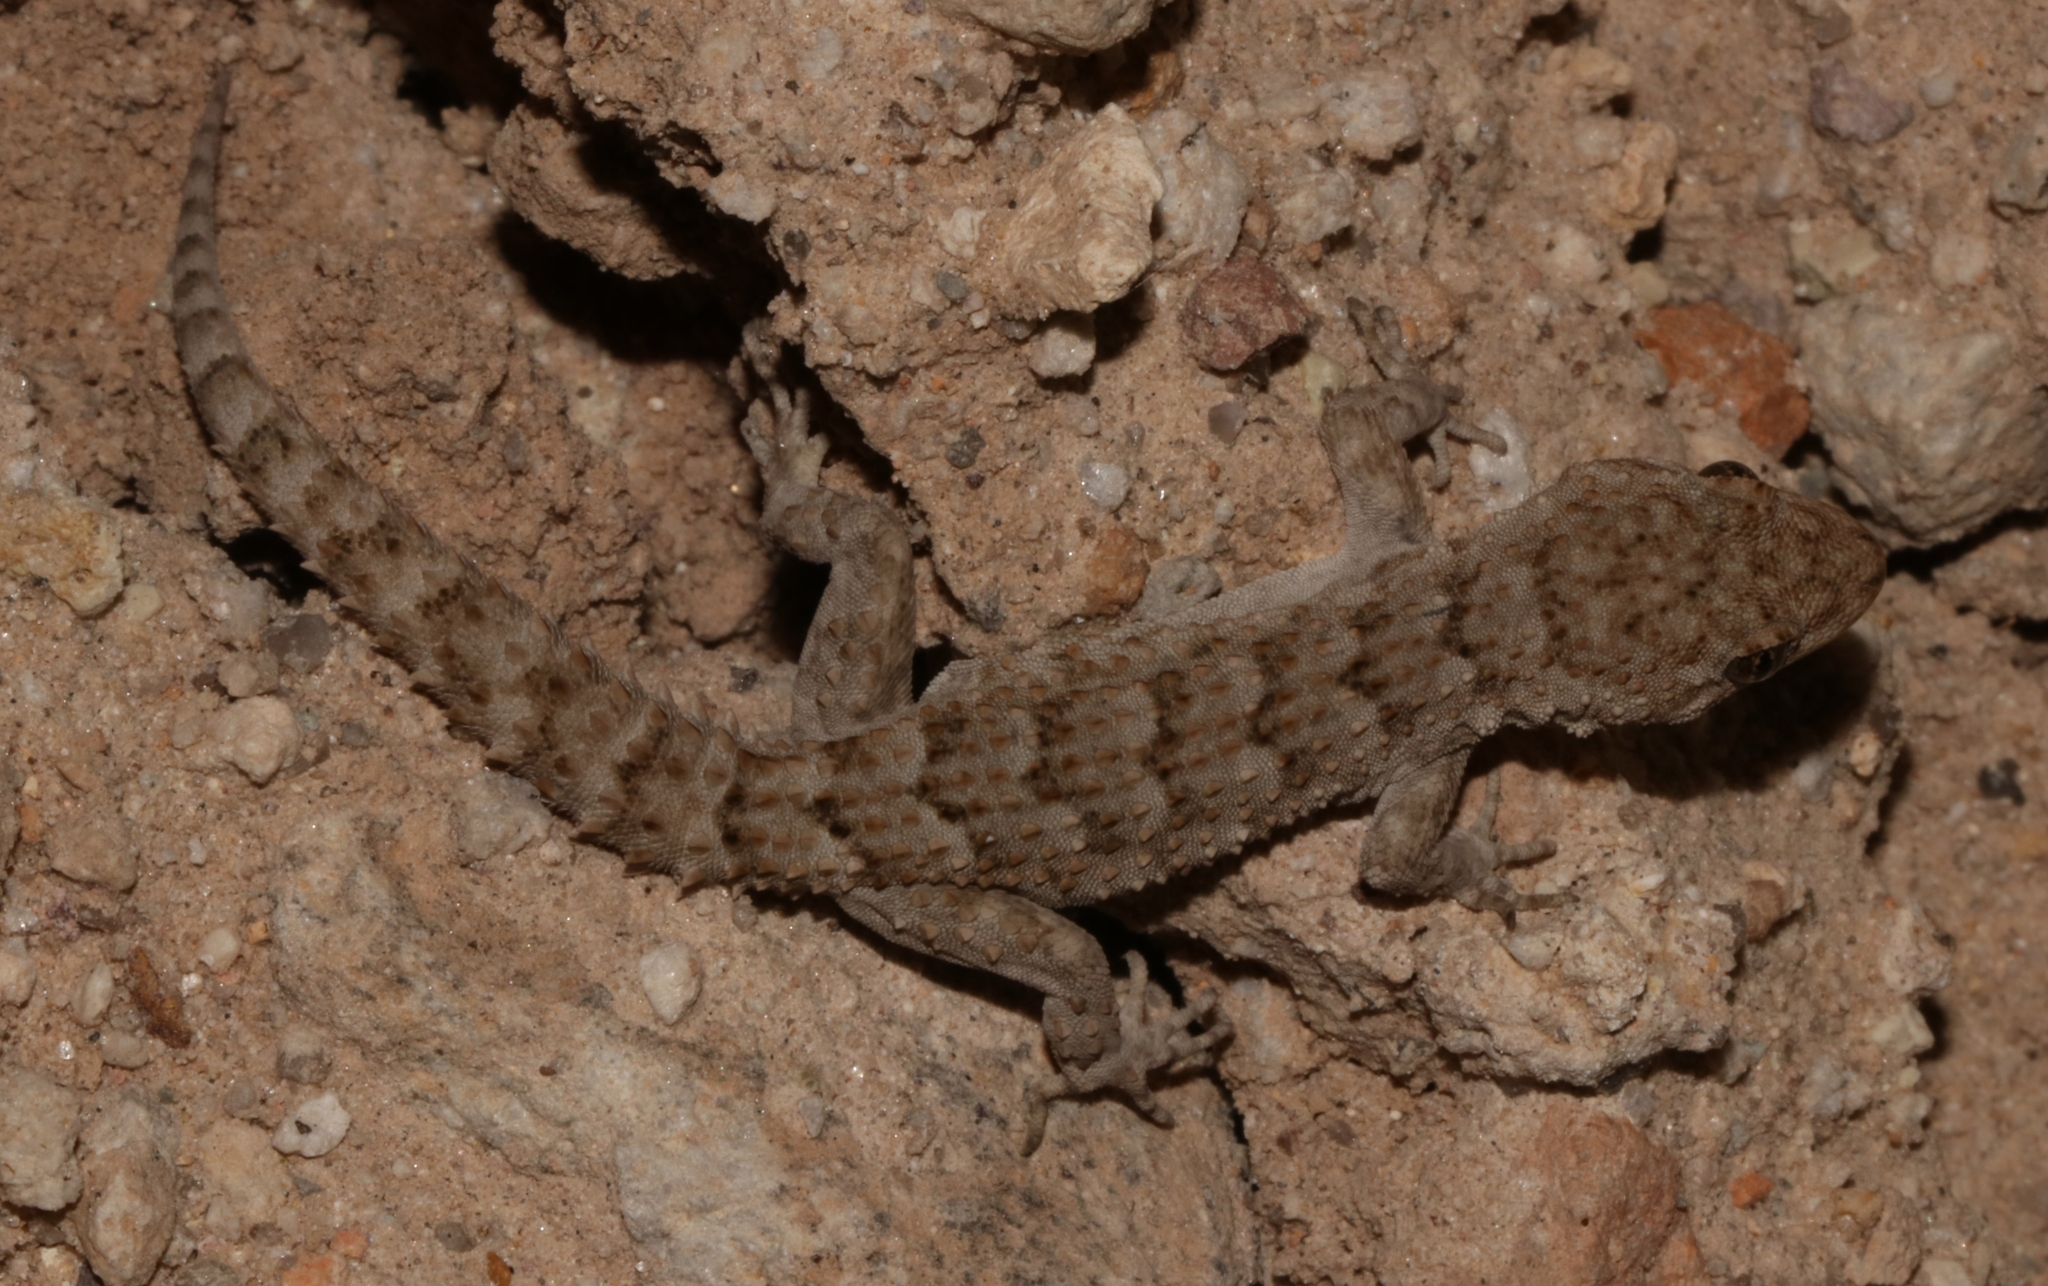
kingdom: Animalia
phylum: Chordata
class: Squamata
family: Gekkonidae
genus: Mediodactylus
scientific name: Mediodactylus kotschyi
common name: Kotschy's gecko
